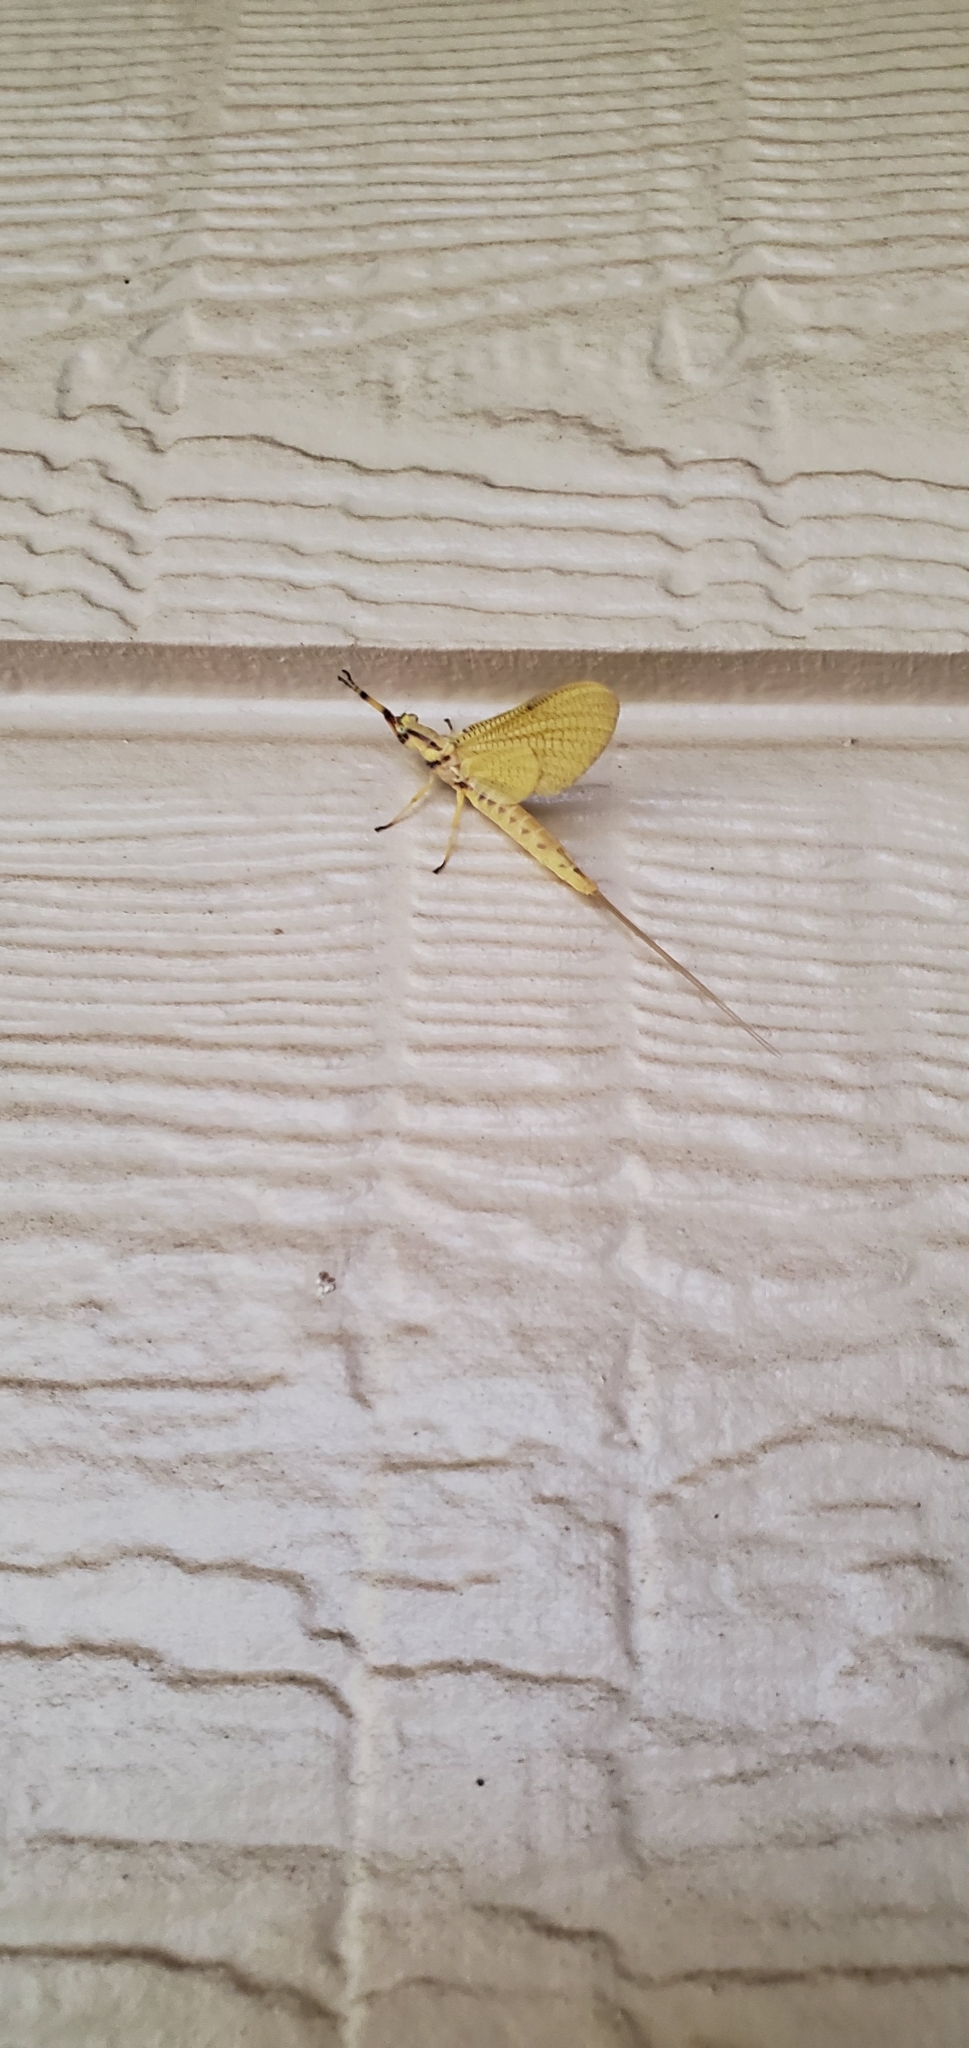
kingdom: Animalia
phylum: Arthropoda
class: Insecta
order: Ephemeroptera
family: Ephemeridae
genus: Hexagenia
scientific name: Hexagenia limbata
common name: Giant mayfly
